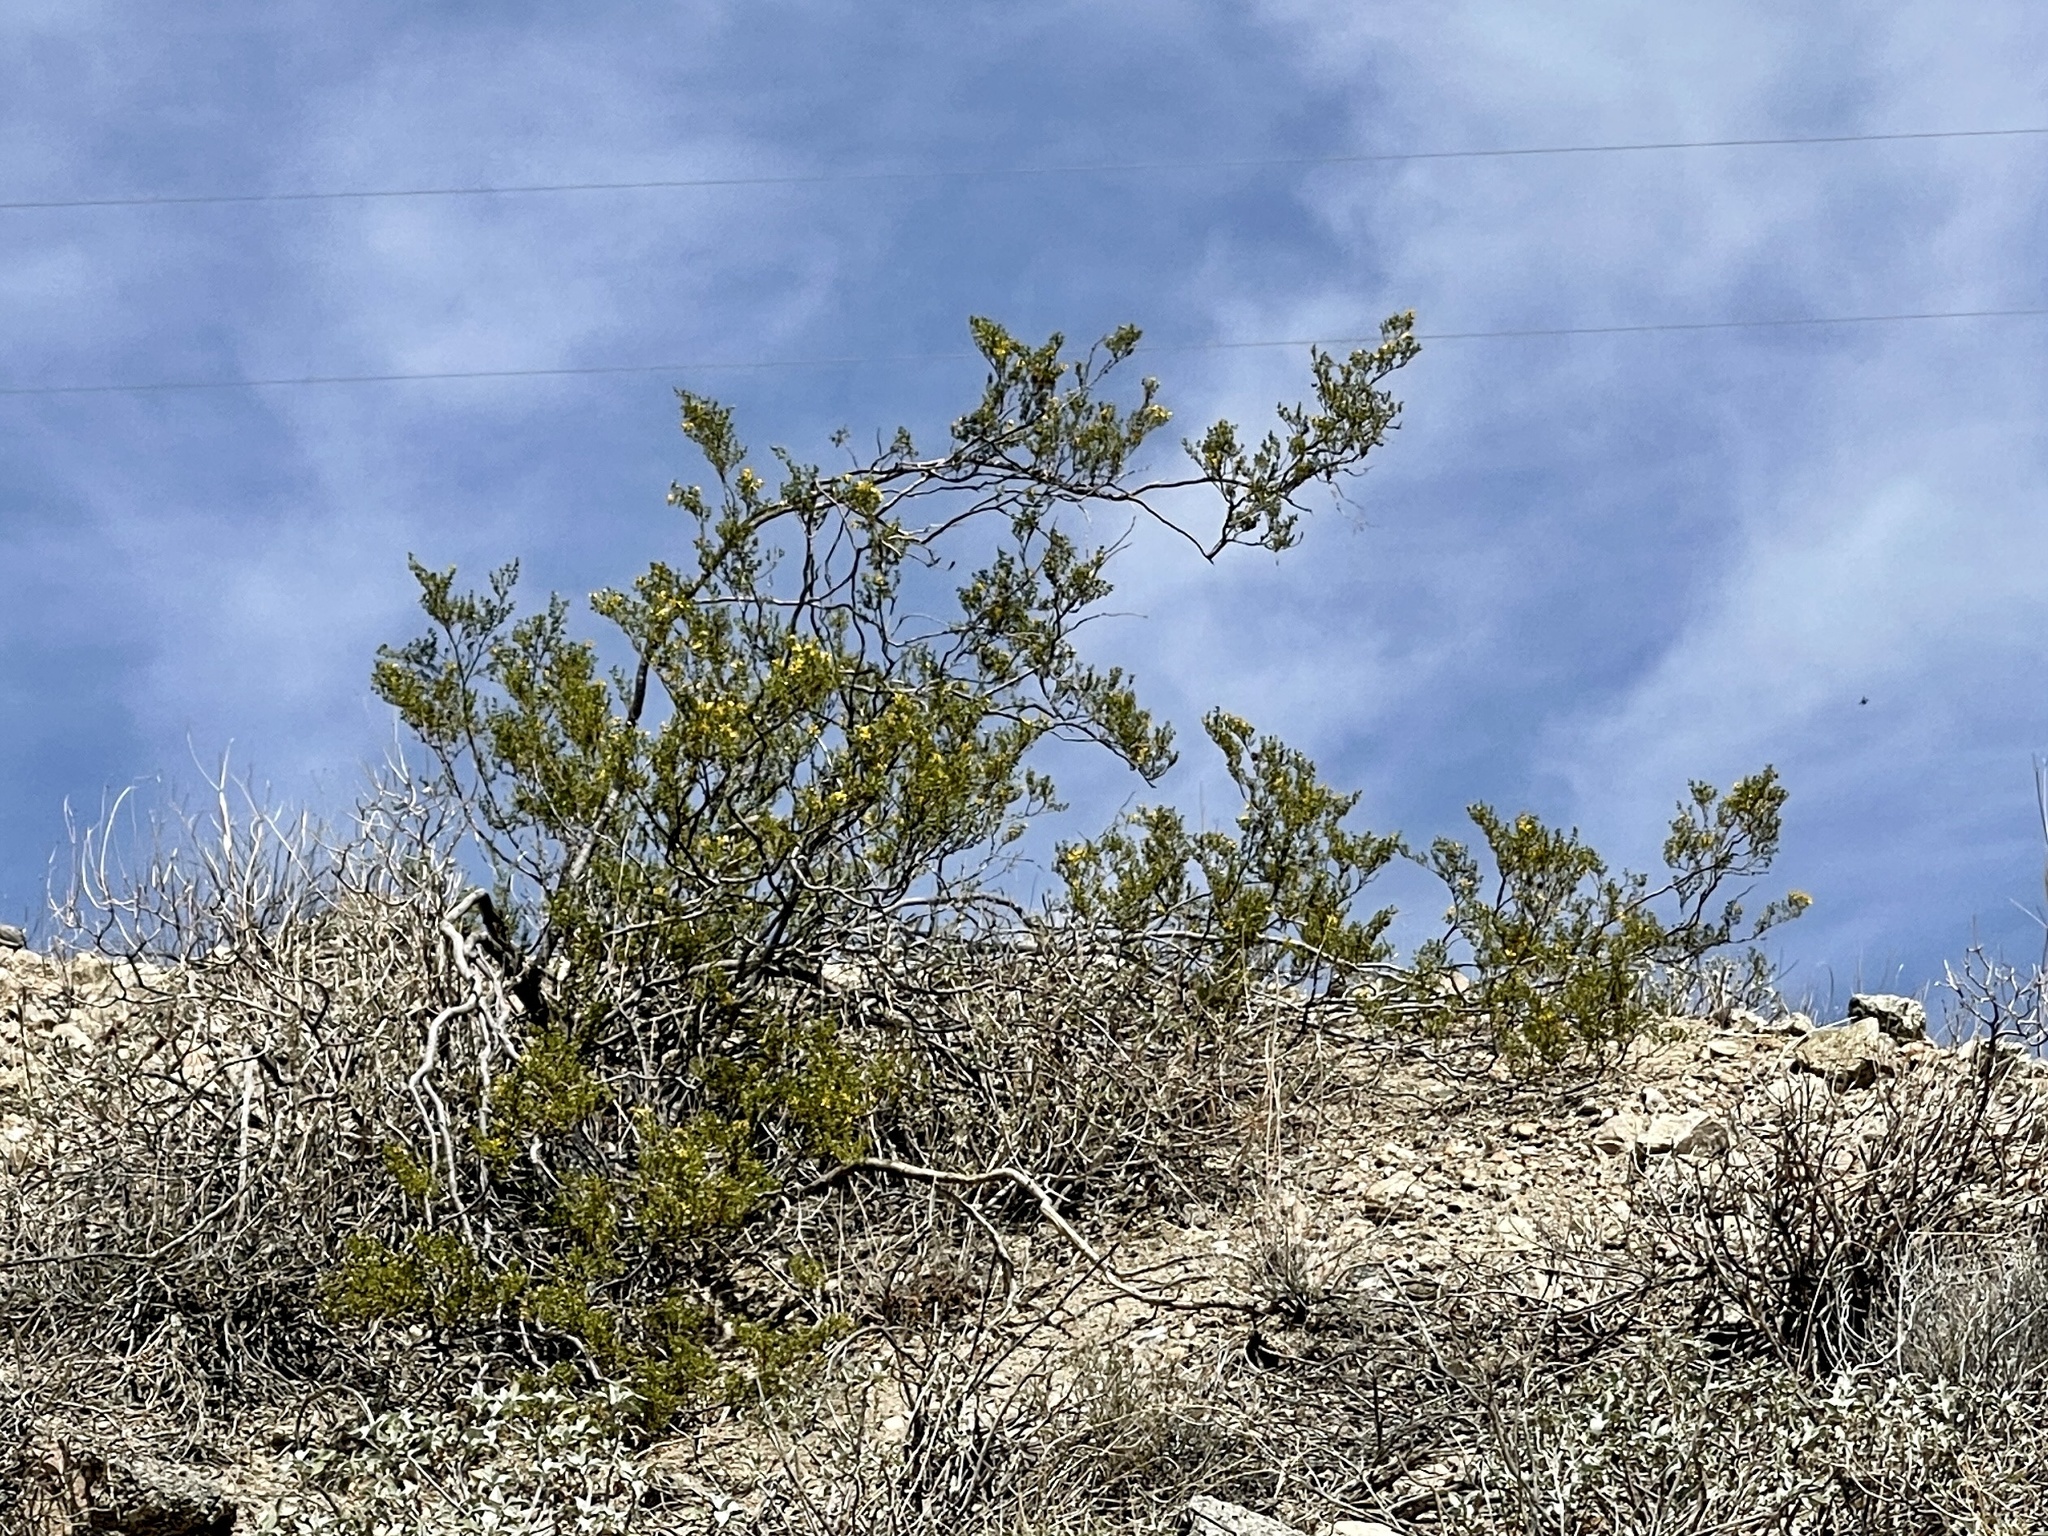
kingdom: Plantae
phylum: Tracheophyta
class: Magnoliopsida
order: Zygophyllales
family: Zygophyllaceae
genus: Larrea
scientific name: Larrea tridentata
